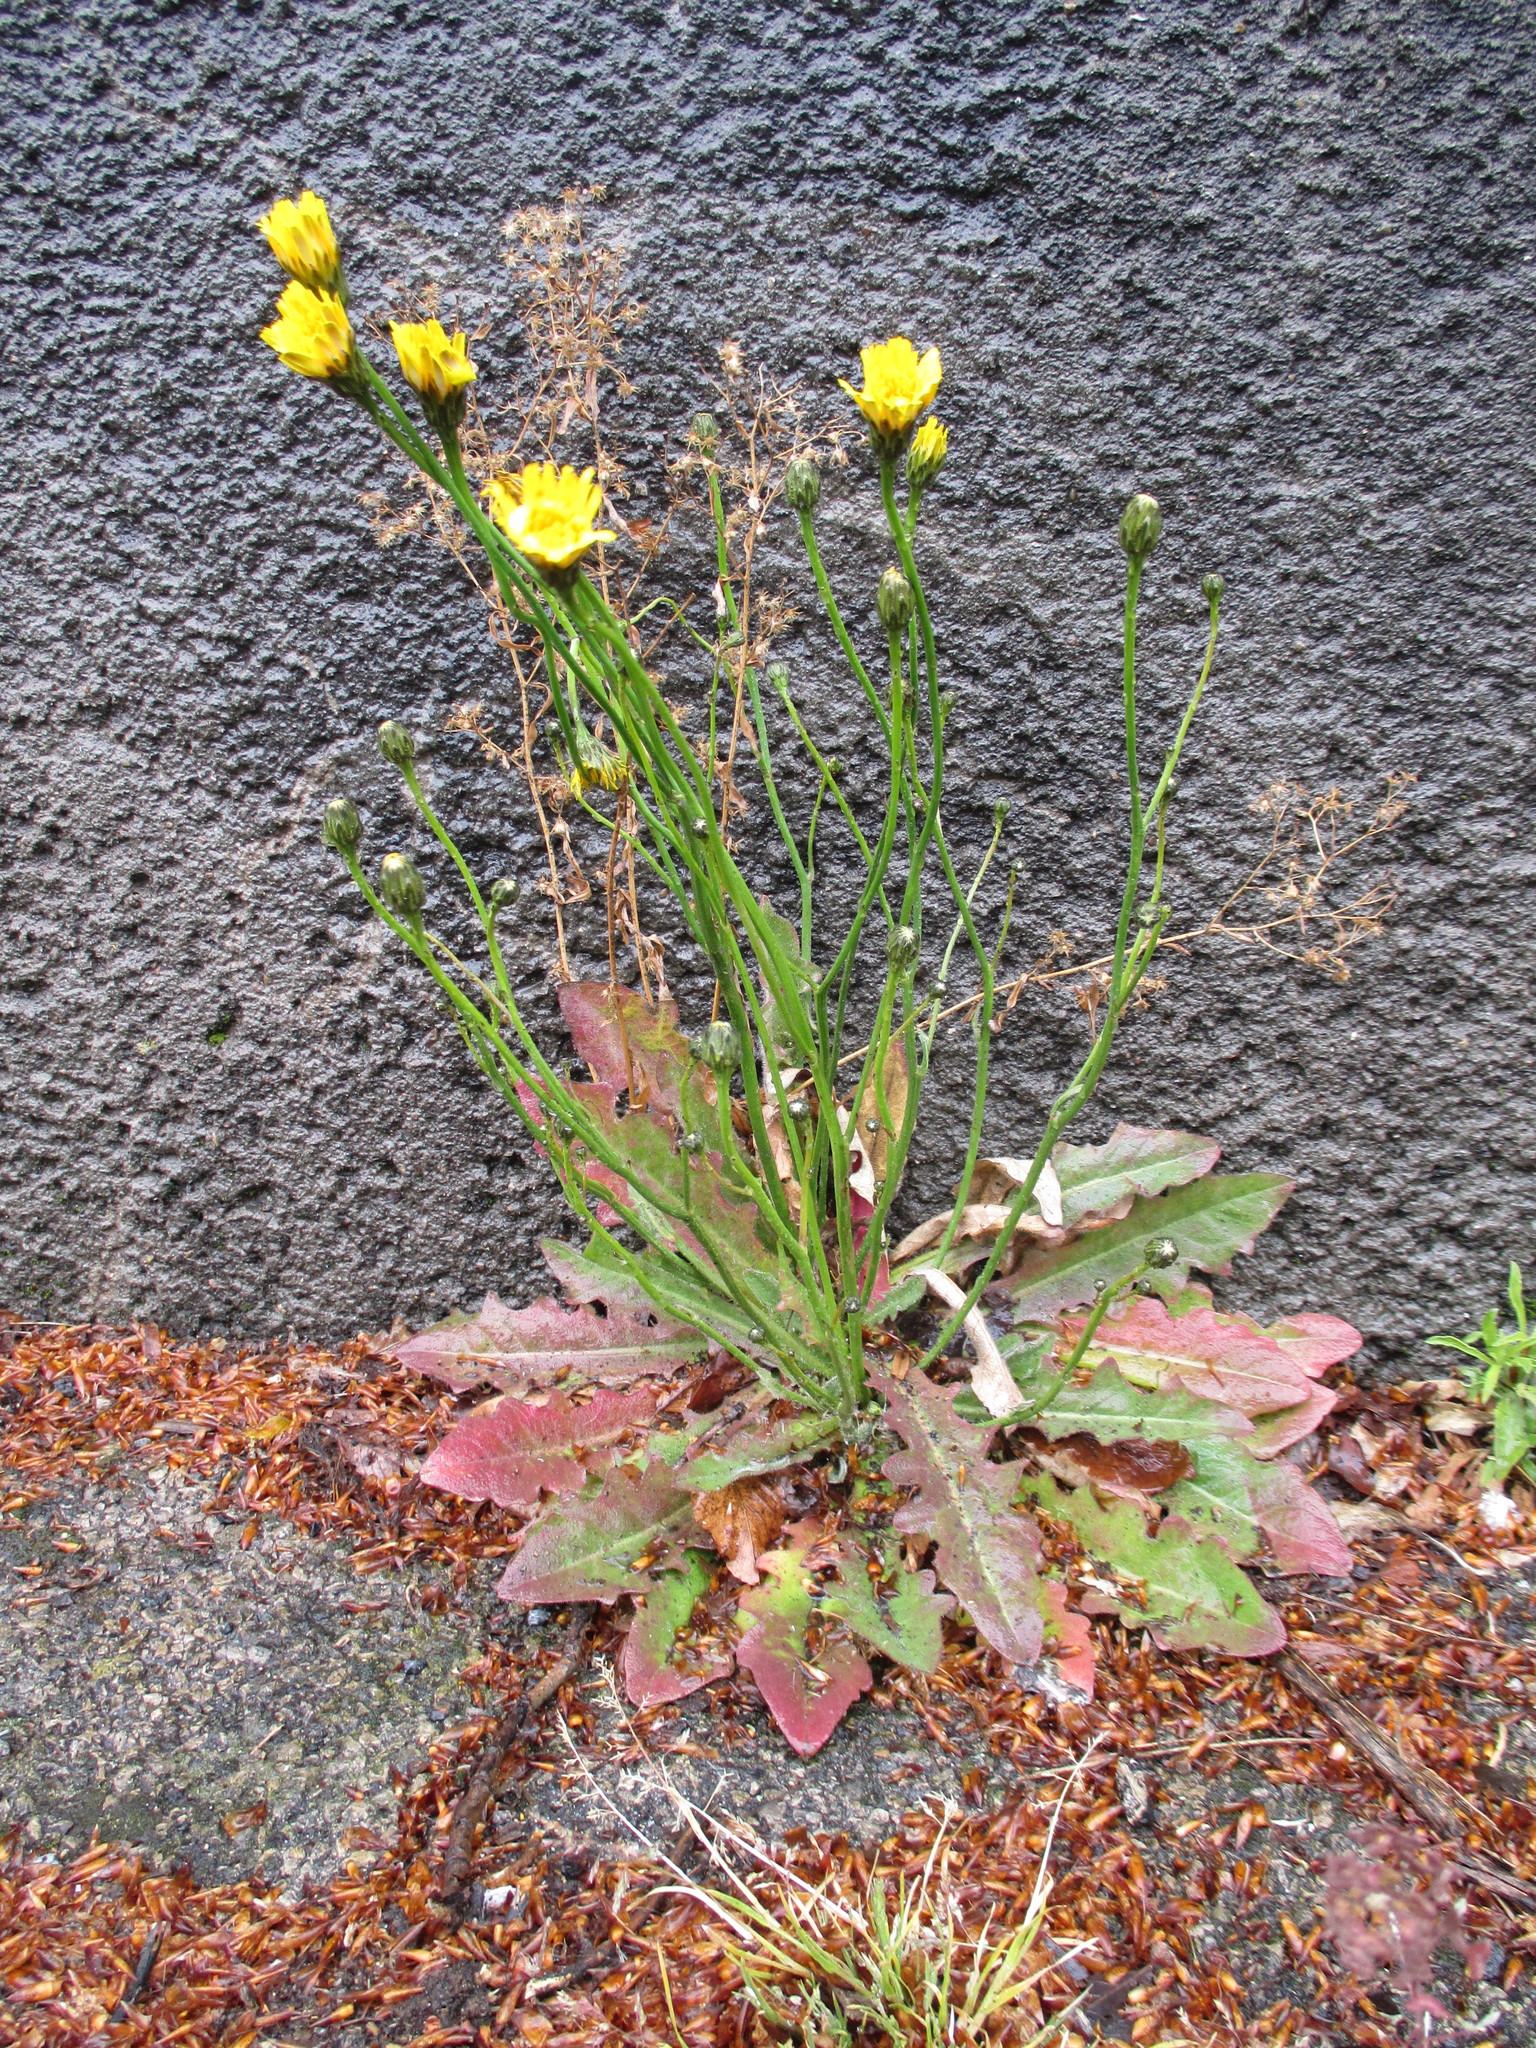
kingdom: Plantae
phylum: Tracheophyta
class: Magnoliopsida
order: Asterales
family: Asteraceae
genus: Hypochaeris
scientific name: Hypochaeris radicata
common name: Flatweed
